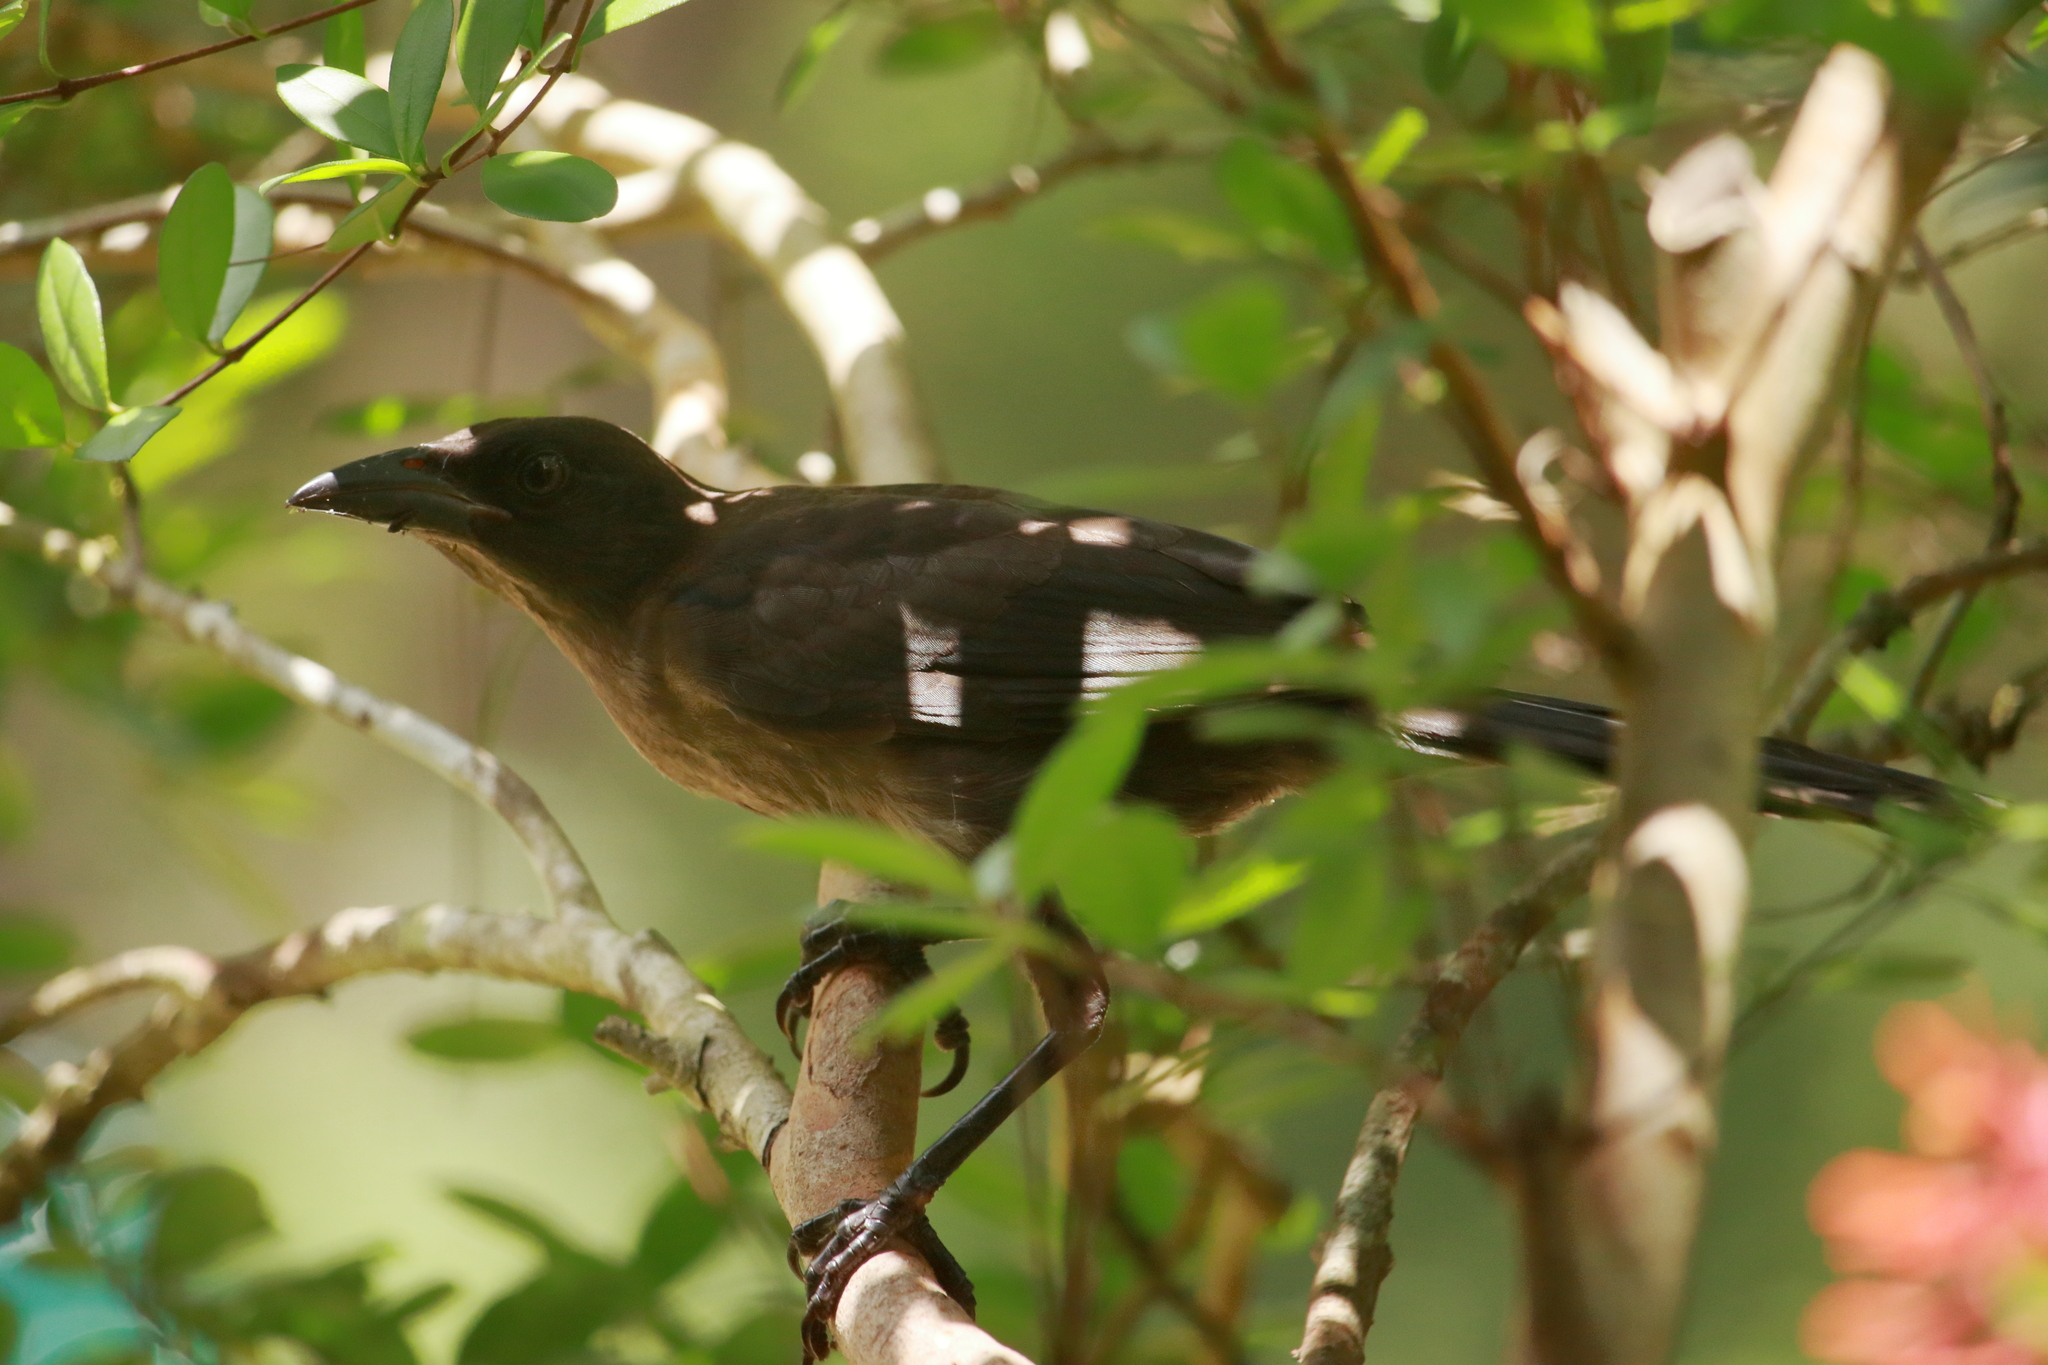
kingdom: Animalia
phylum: Chordata
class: Aves
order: Passeriformes
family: Icteridae
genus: Quiscalus
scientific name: Quiscalus quiscula
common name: Common grackle
